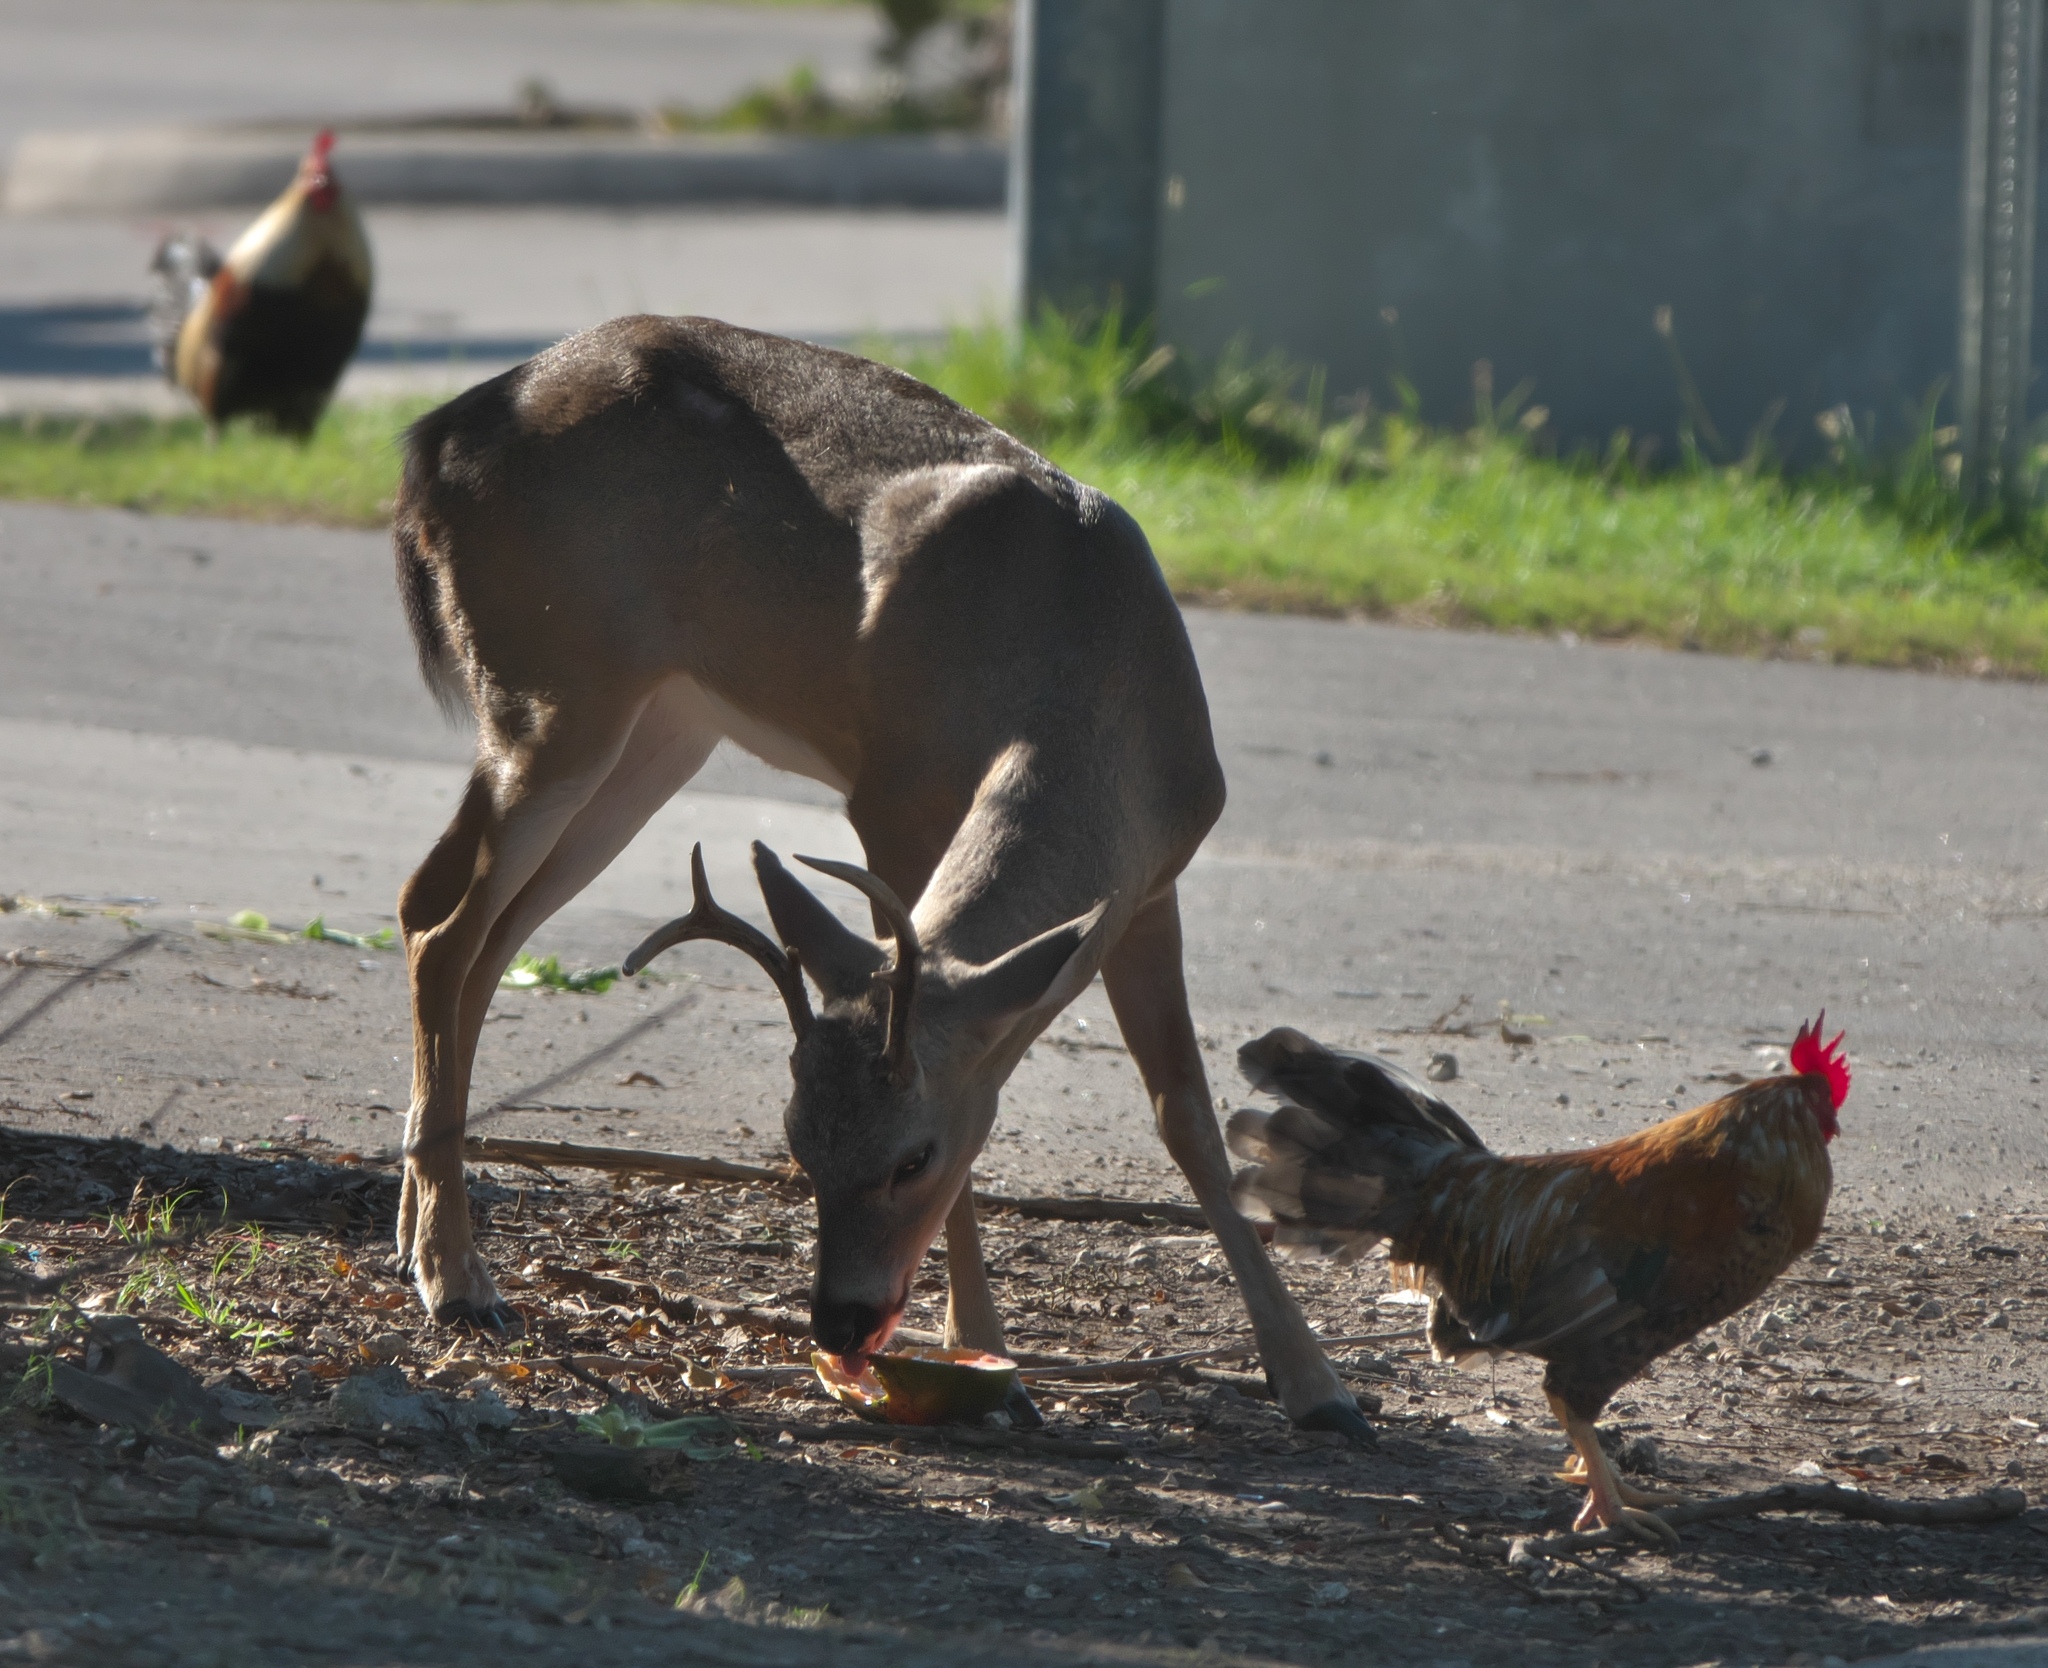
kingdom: Animalia
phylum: Chordata
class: Mammalia
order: Artiodactyla
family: Cervidae
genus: Odocoileus
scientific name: Odocoileus virginianus
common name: White-tailed deer
